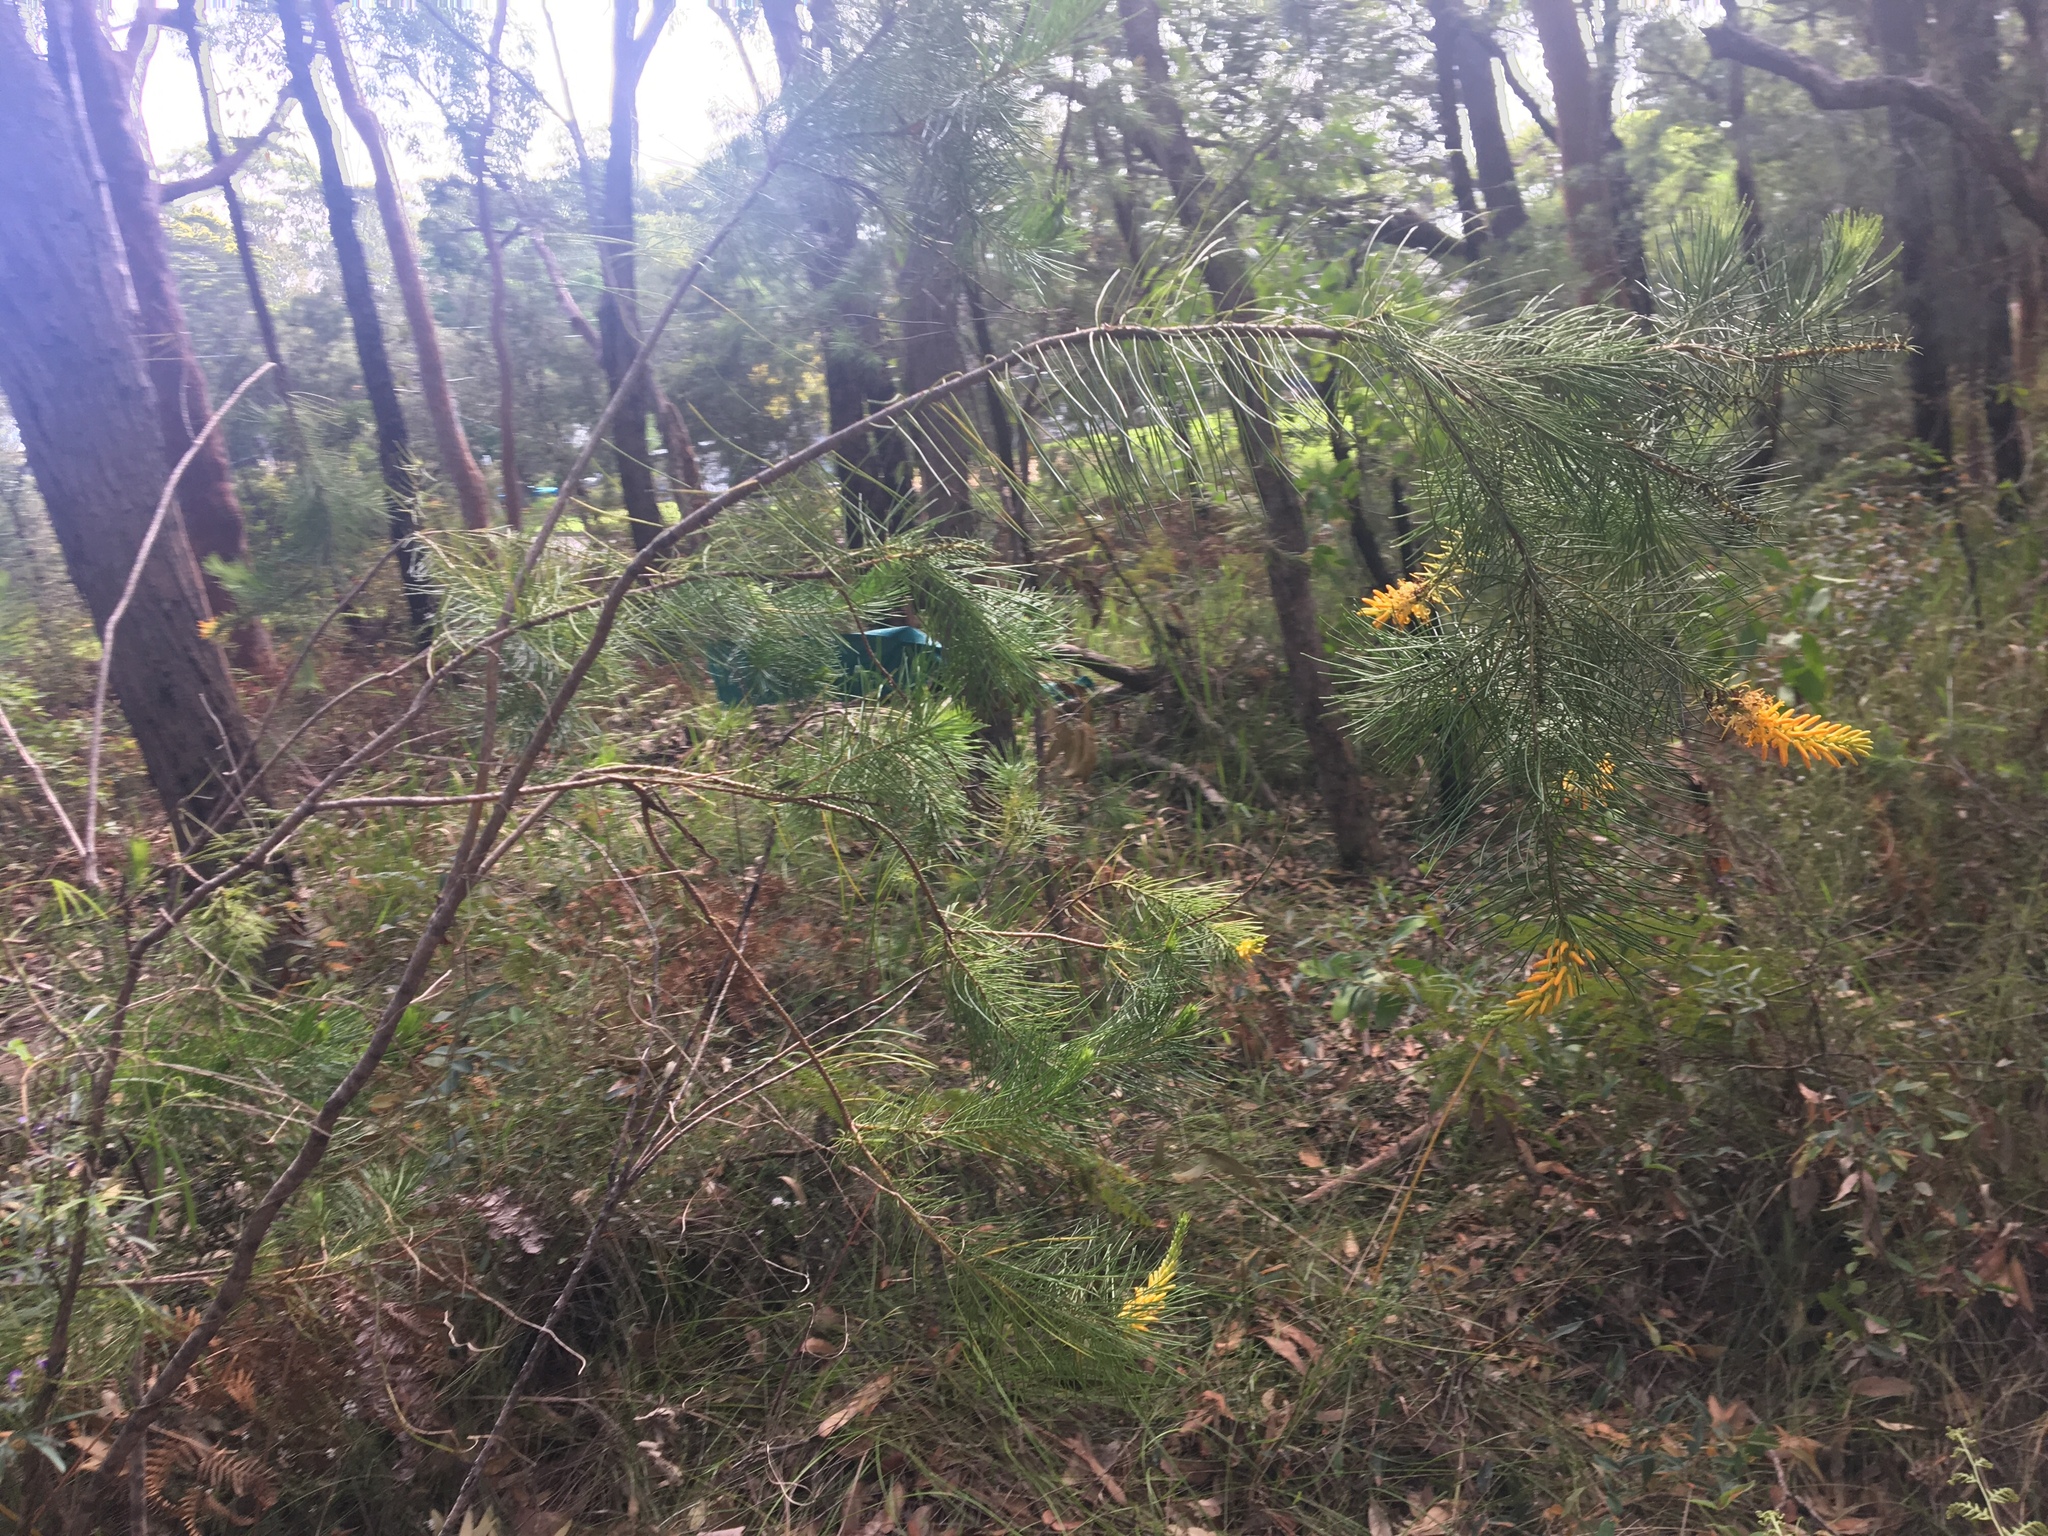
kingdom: Plantae
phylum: Tracheophyta
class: Magnoliopsida
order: Proteales
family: Proteaceae
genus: Persoonia
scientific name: Persoonia pinifolia
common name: Pine-leaf geebung
